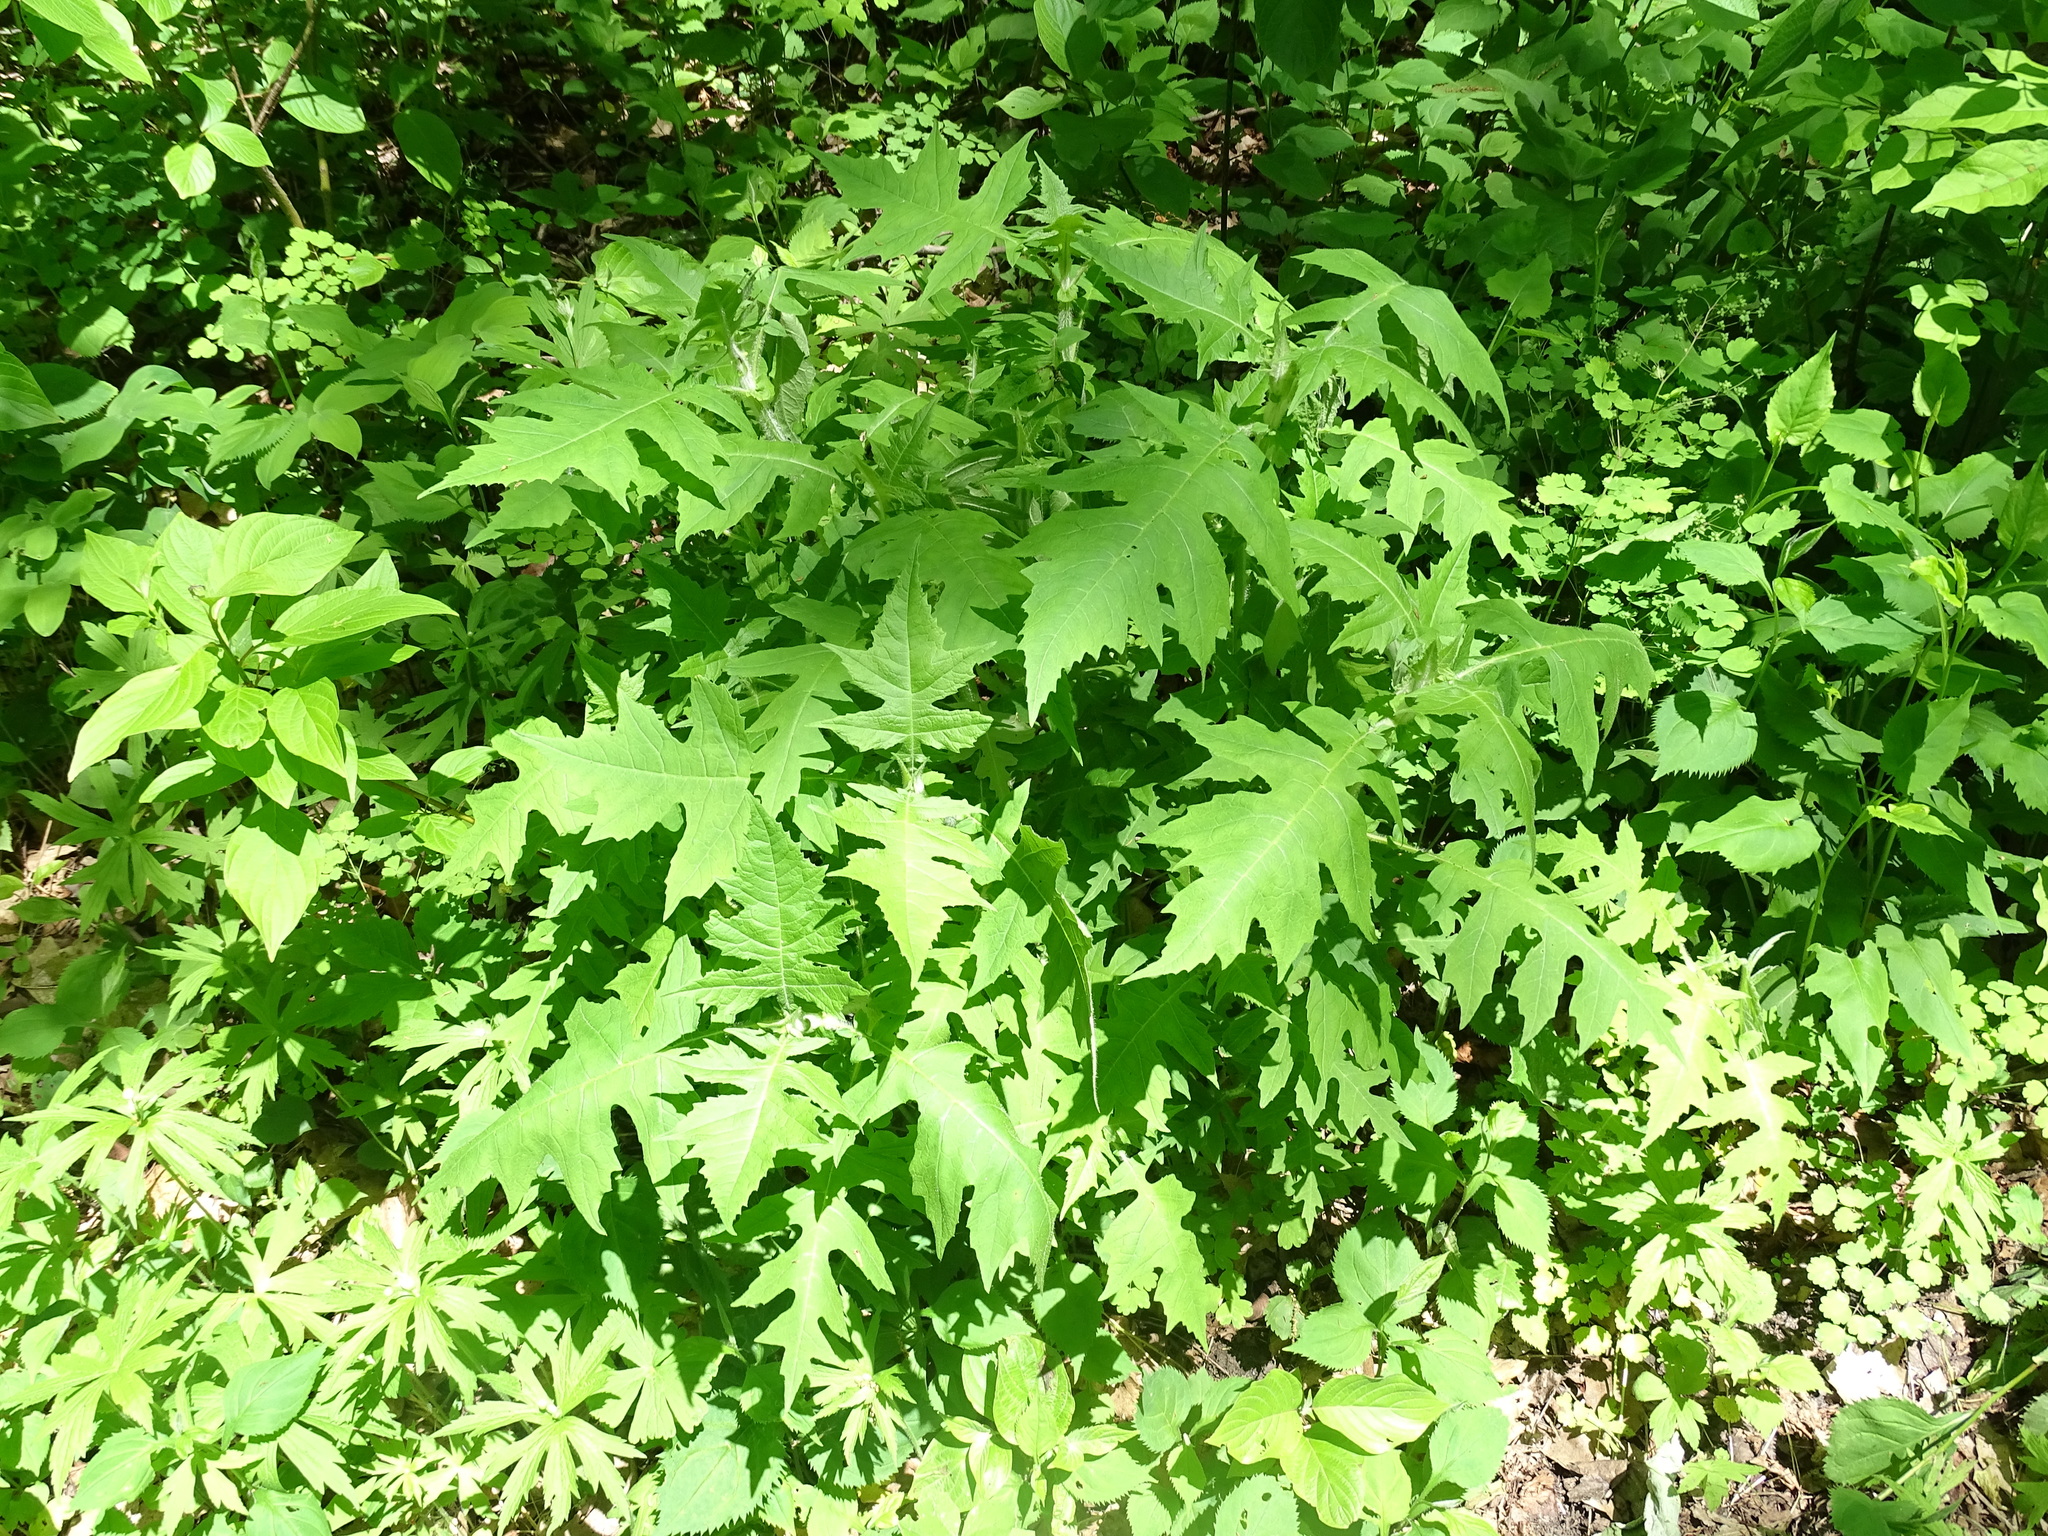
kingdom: Plantae
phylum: Tracheophyta
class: Magnoliopsida
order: Asterales
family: Asteraceae
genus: Polymnia
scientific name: Polymnia canadensis
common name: Pale-flowered leafcup
